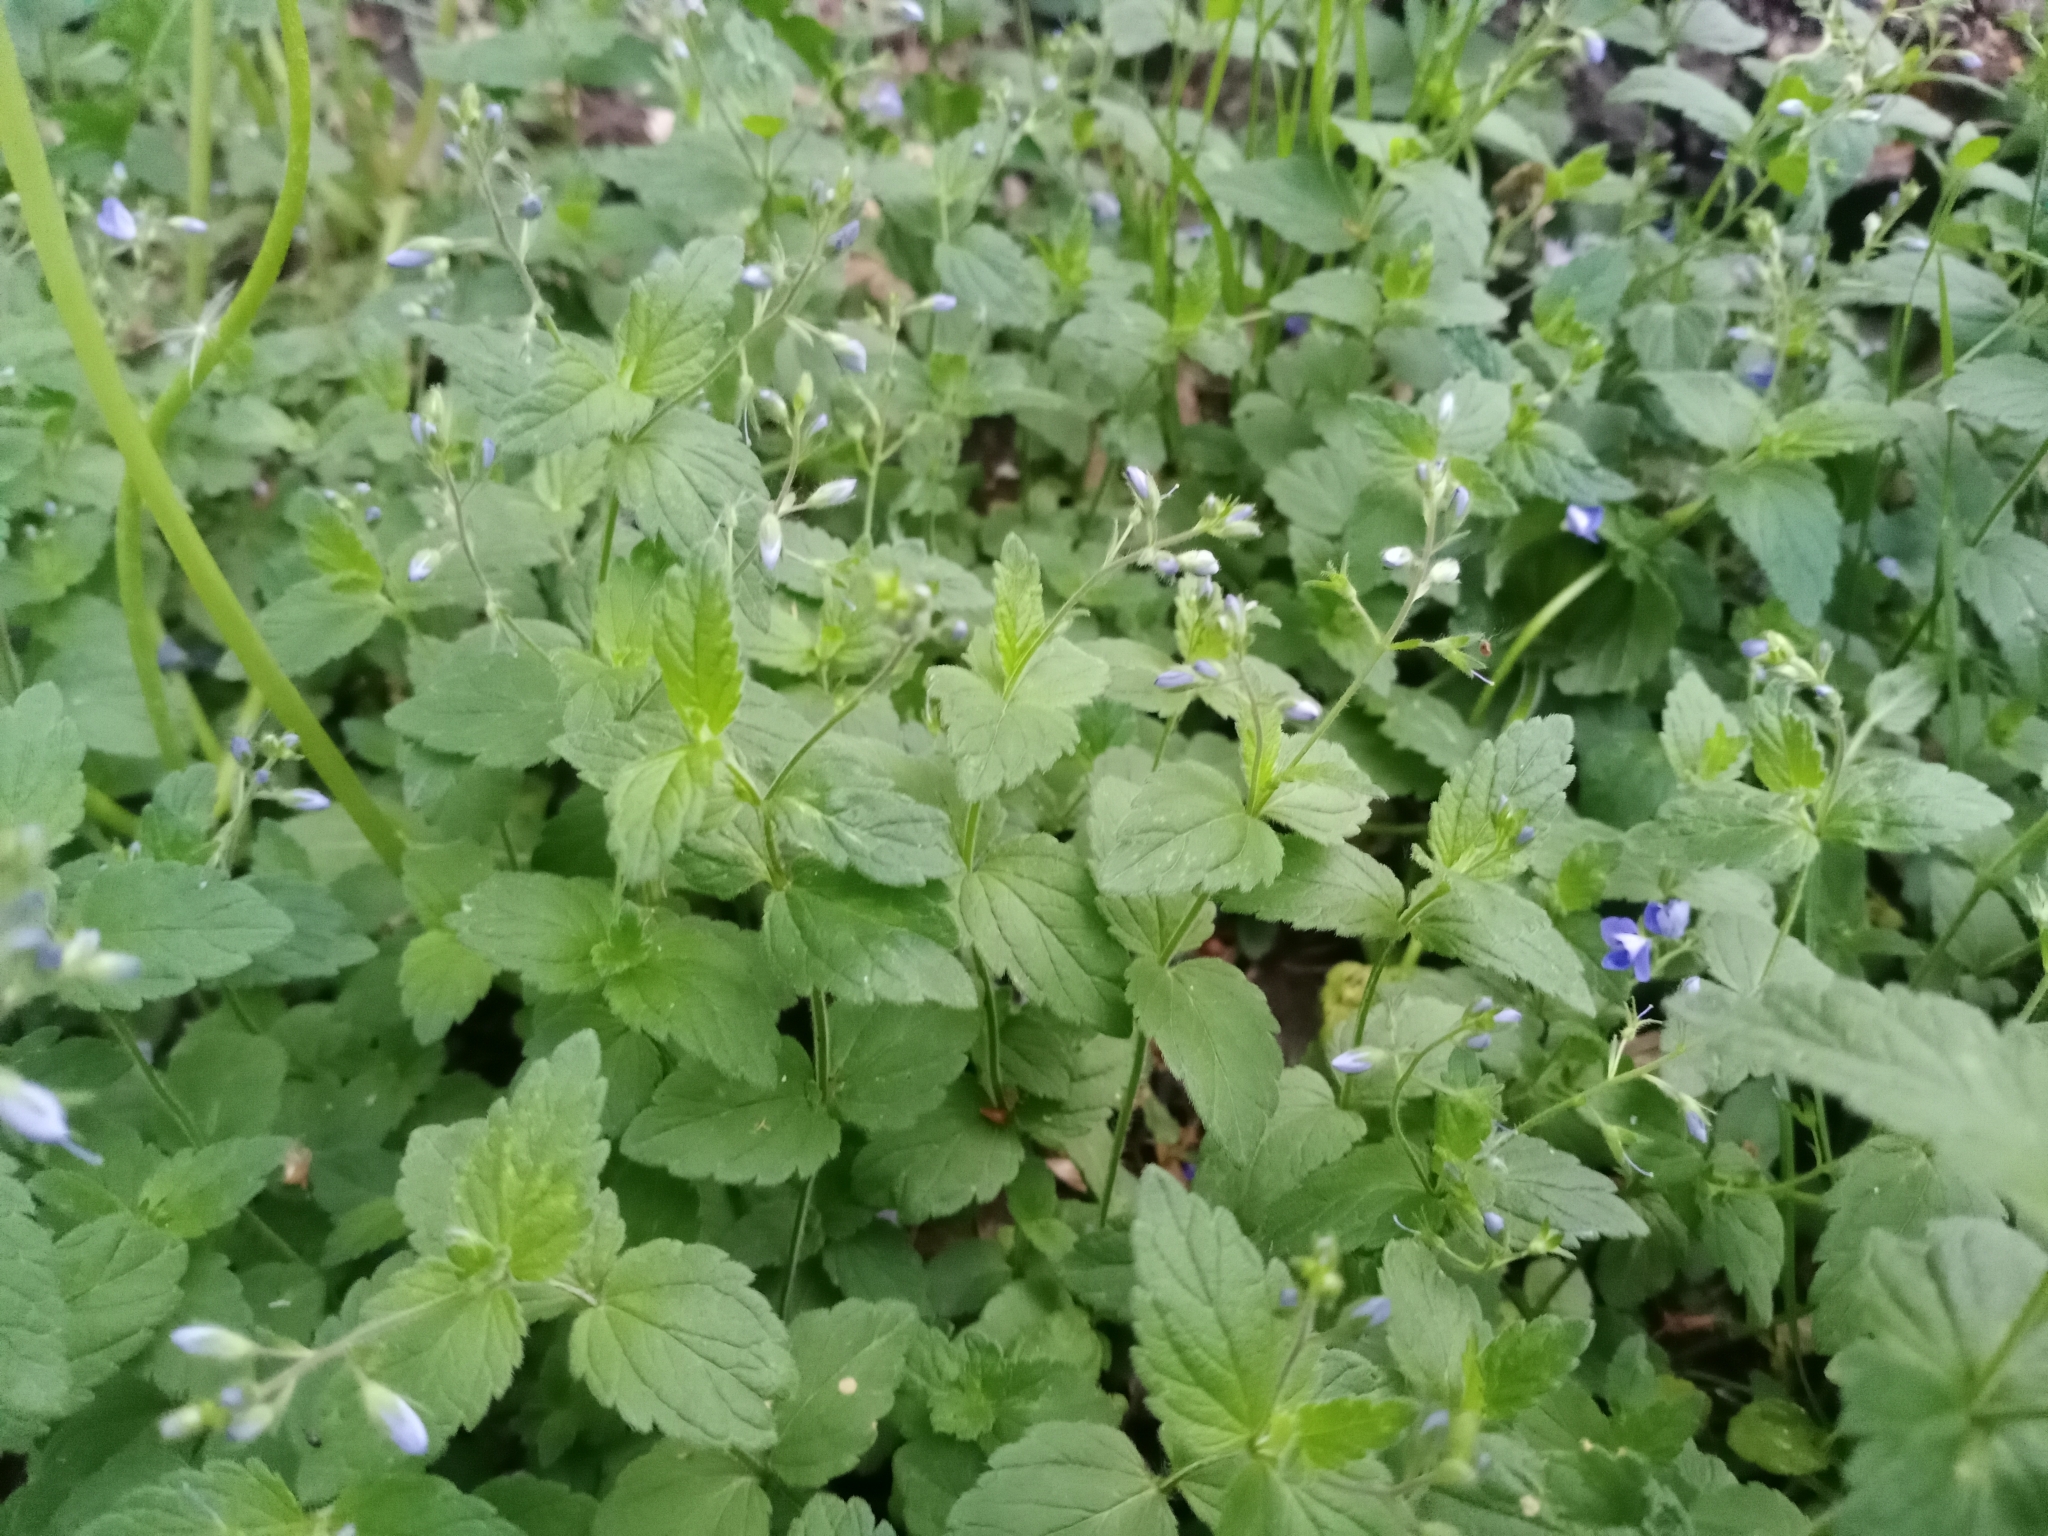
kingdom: Plantae
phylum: Tracheophyta
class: Magnoliopsida
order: Lamiales
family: Plantaginaceae
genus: Veronica
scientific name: Veronica chamaedrys
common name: Germander speedwell
